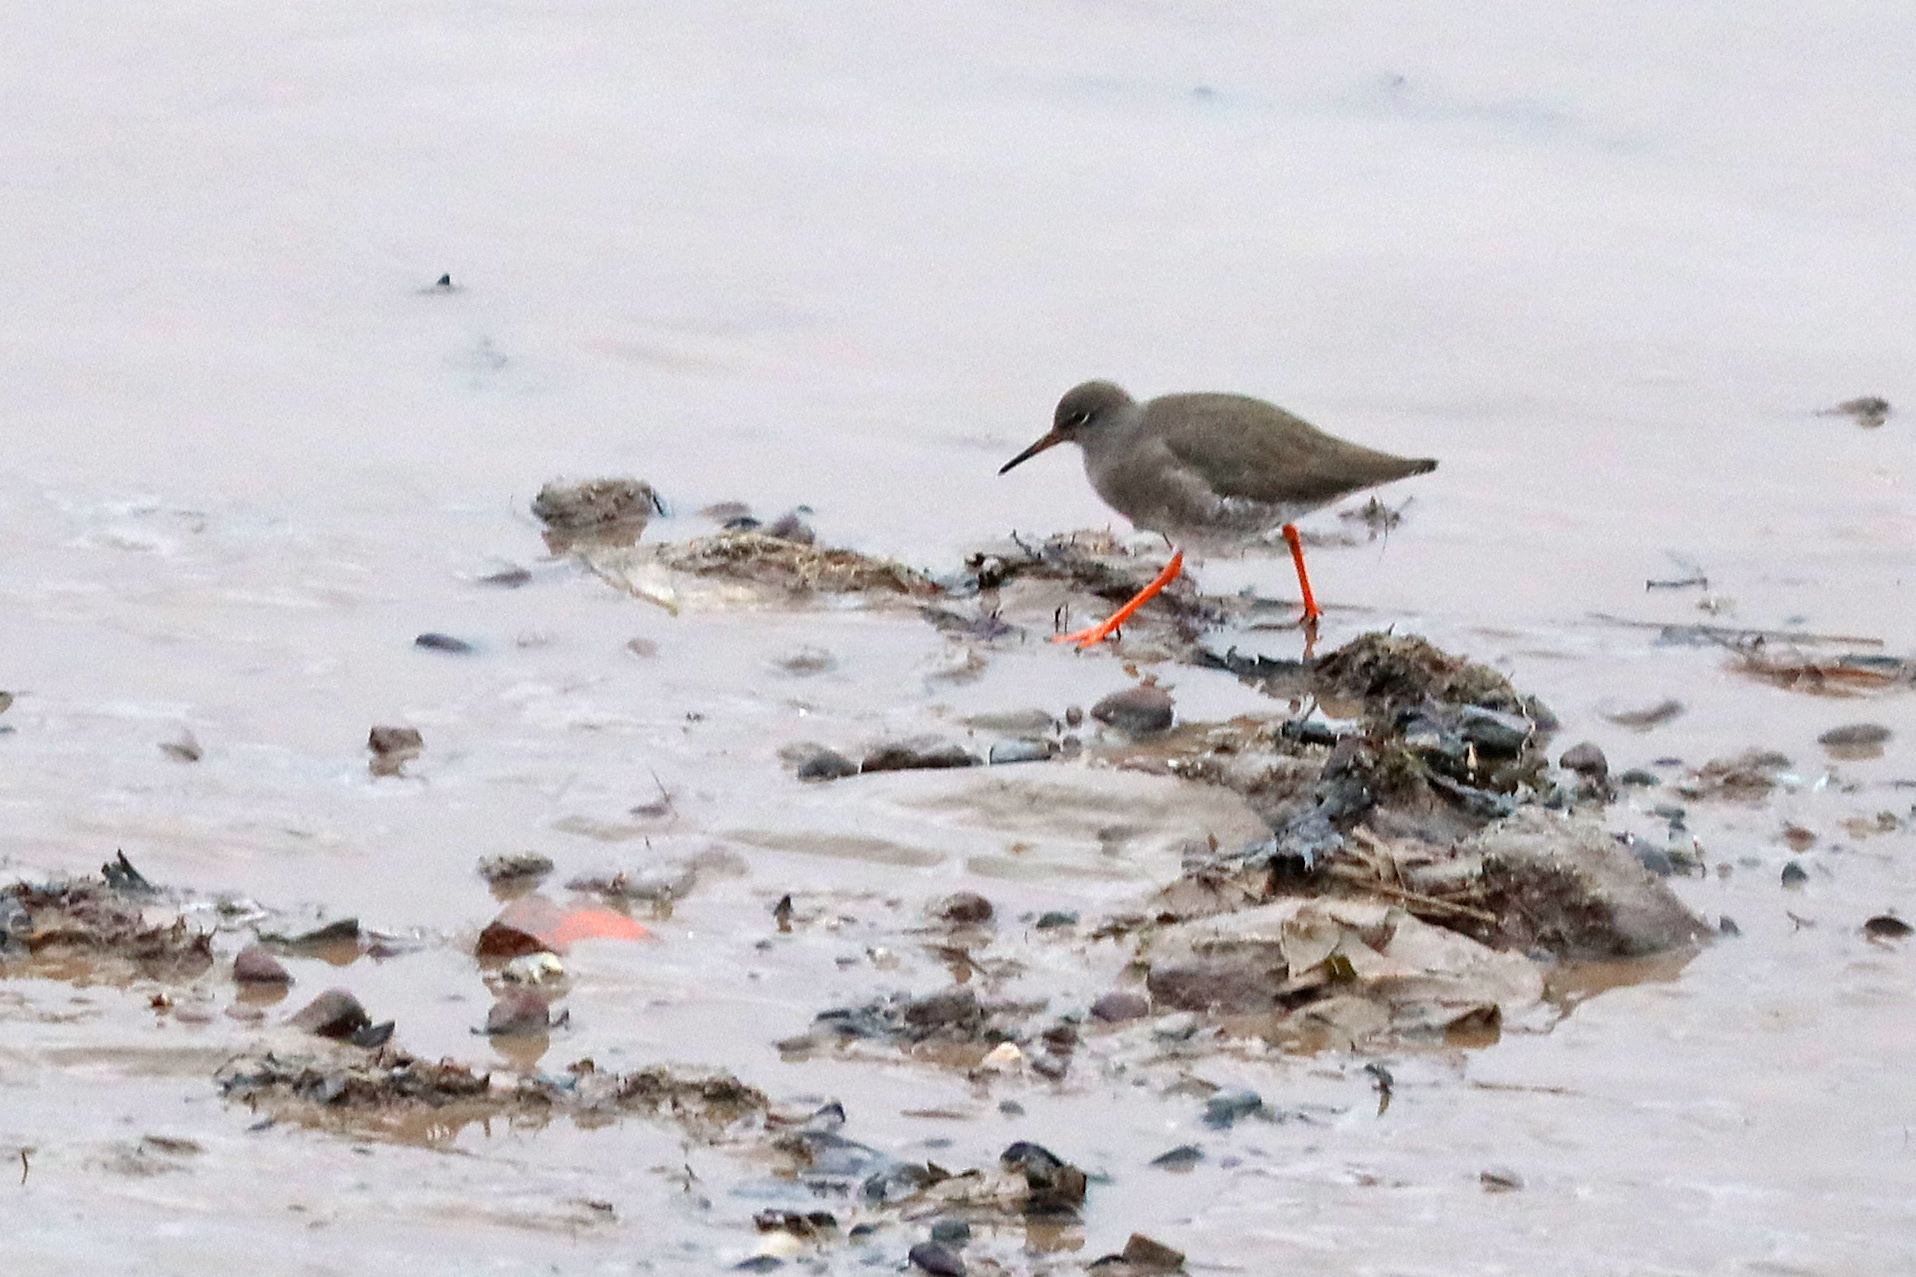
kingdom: Animalia
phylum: Chordata
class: Aves
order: Charadriiformes
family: Scolopacidae
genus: Tringa
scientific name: Tringa totanus
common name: Common redshank
